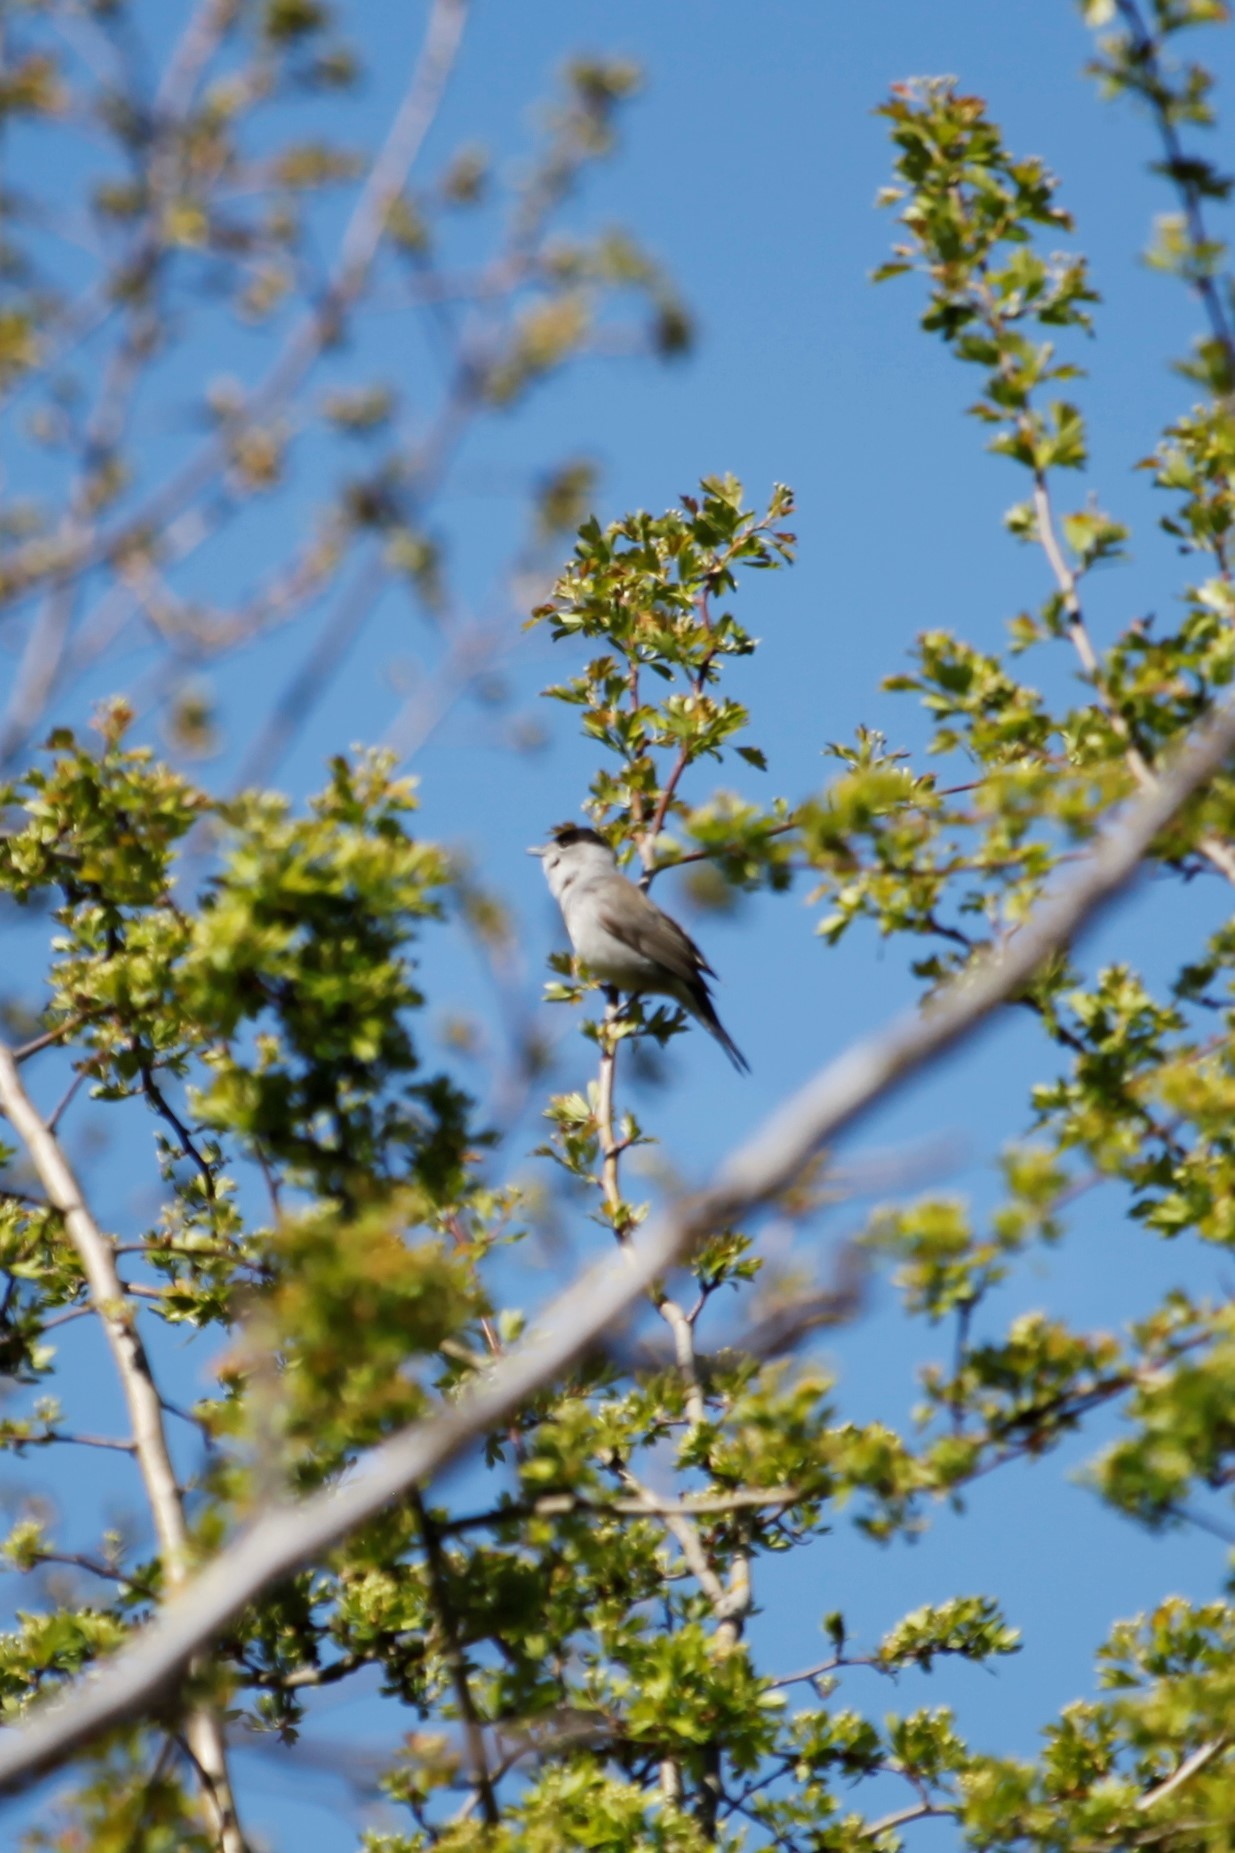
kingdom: Animalia
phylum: Chordata
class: Aves
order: Passeriformes
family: Sylviidae
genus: Sylvia
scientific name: Sylvia atricapilla
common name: Eurasian blackcap
